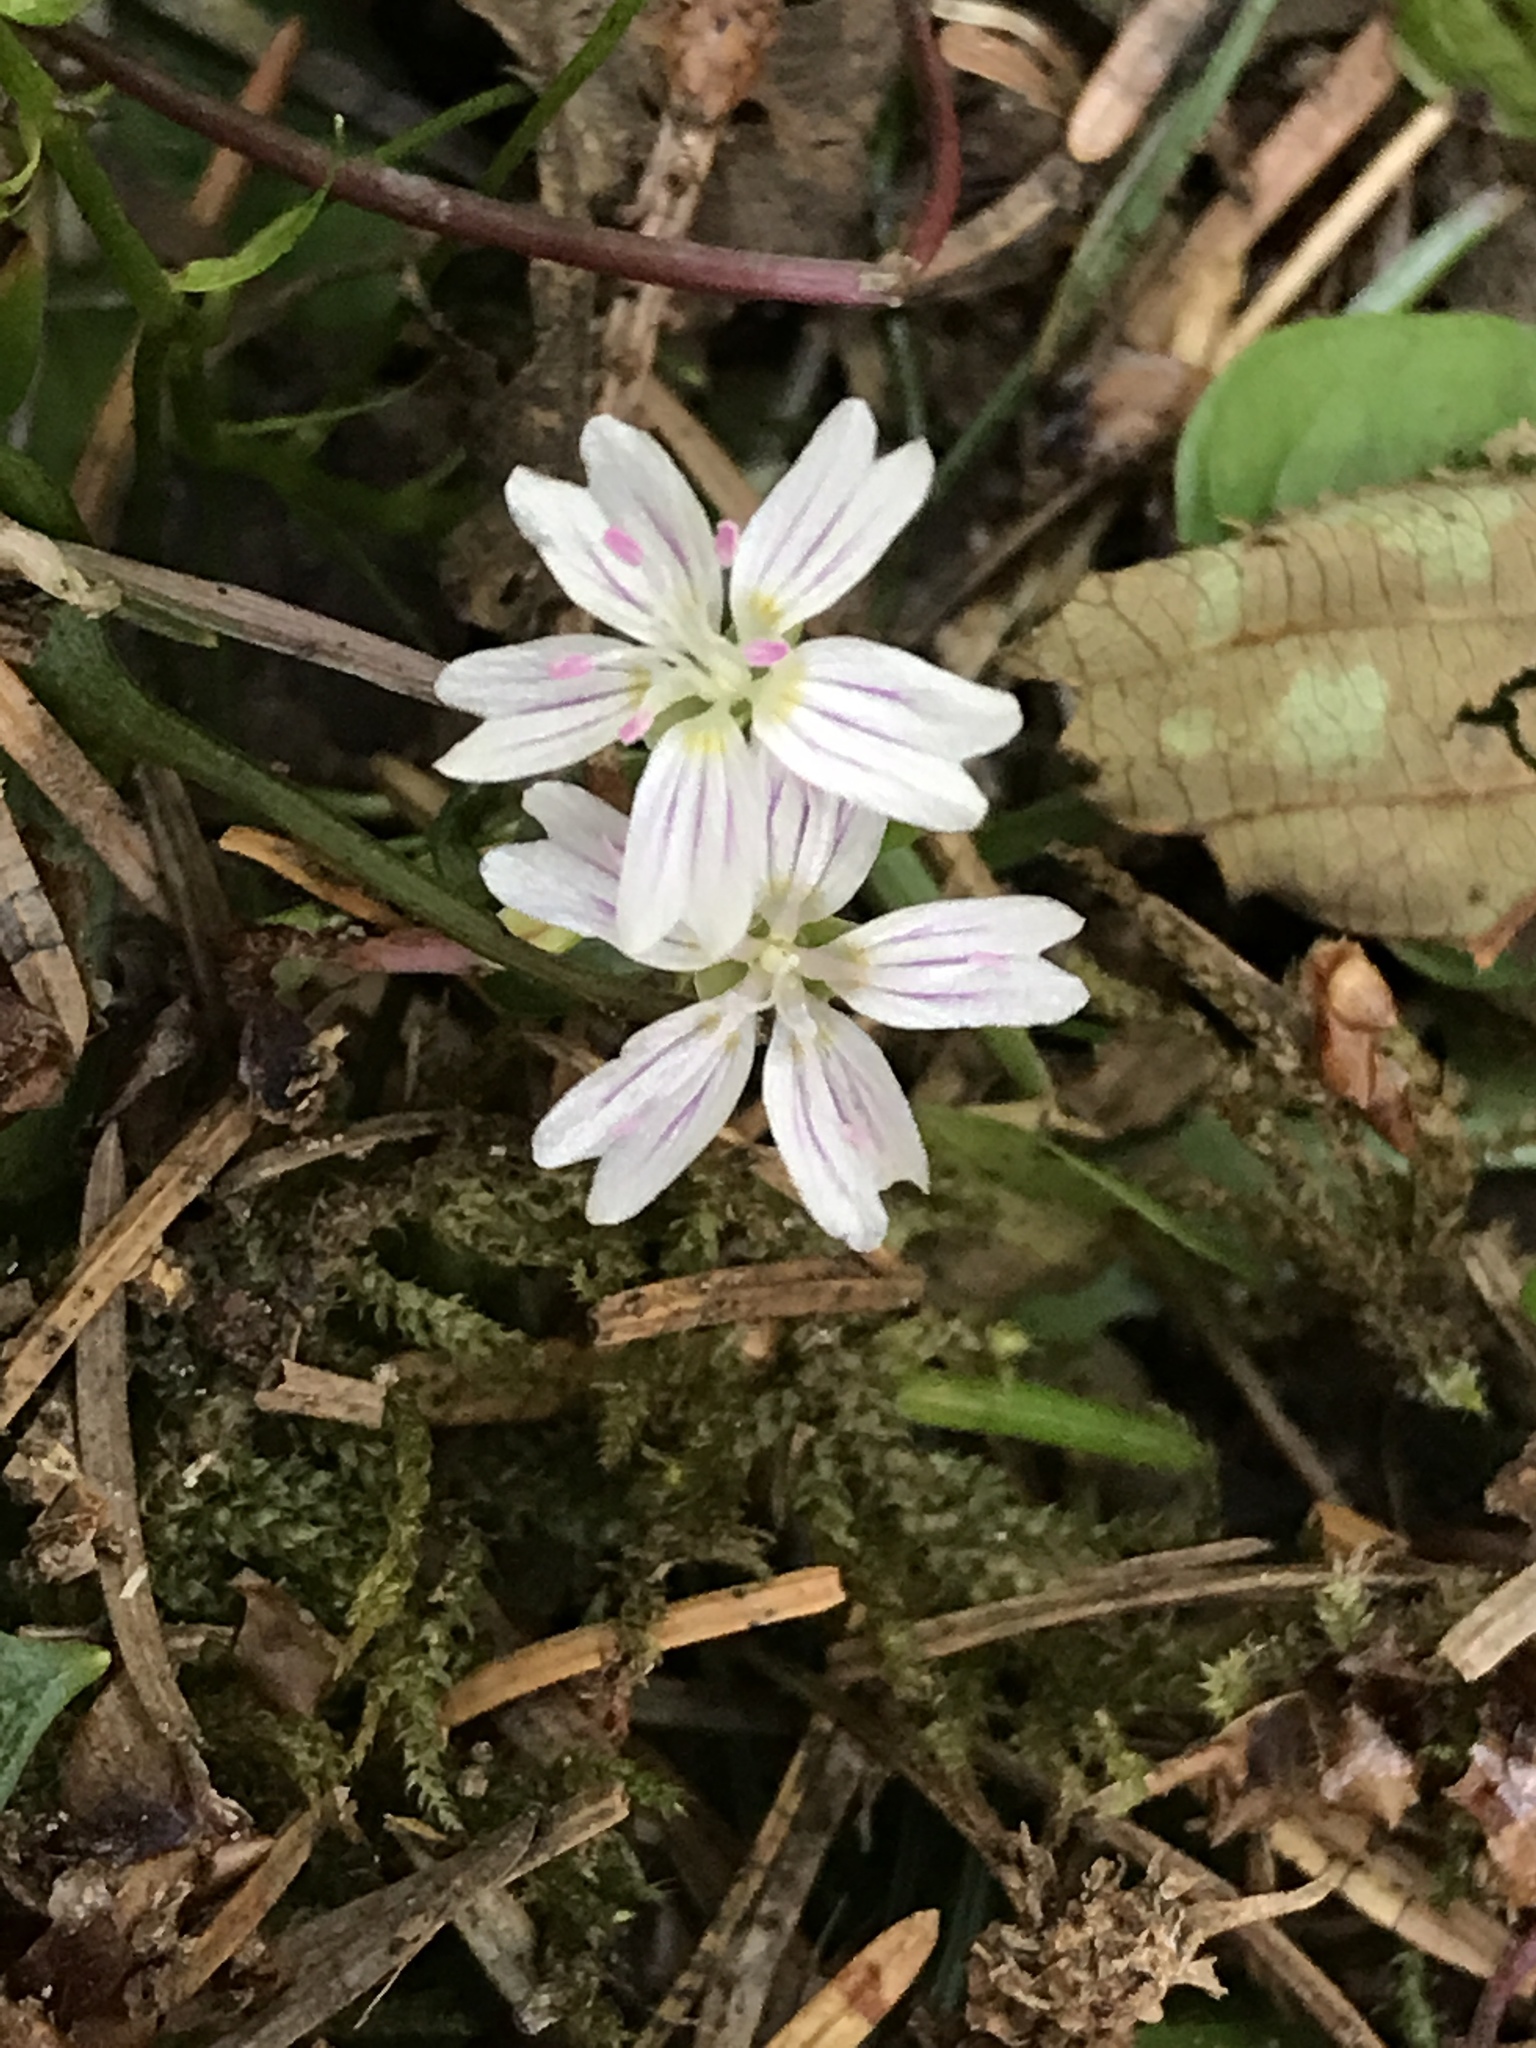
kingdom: Plantae
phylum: Tracheophyta
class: Magnoliopsida
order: Caryophyllales
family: Montiaceae
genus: Claytonia
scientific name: Claytonia sibirica
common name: Pink purslane
